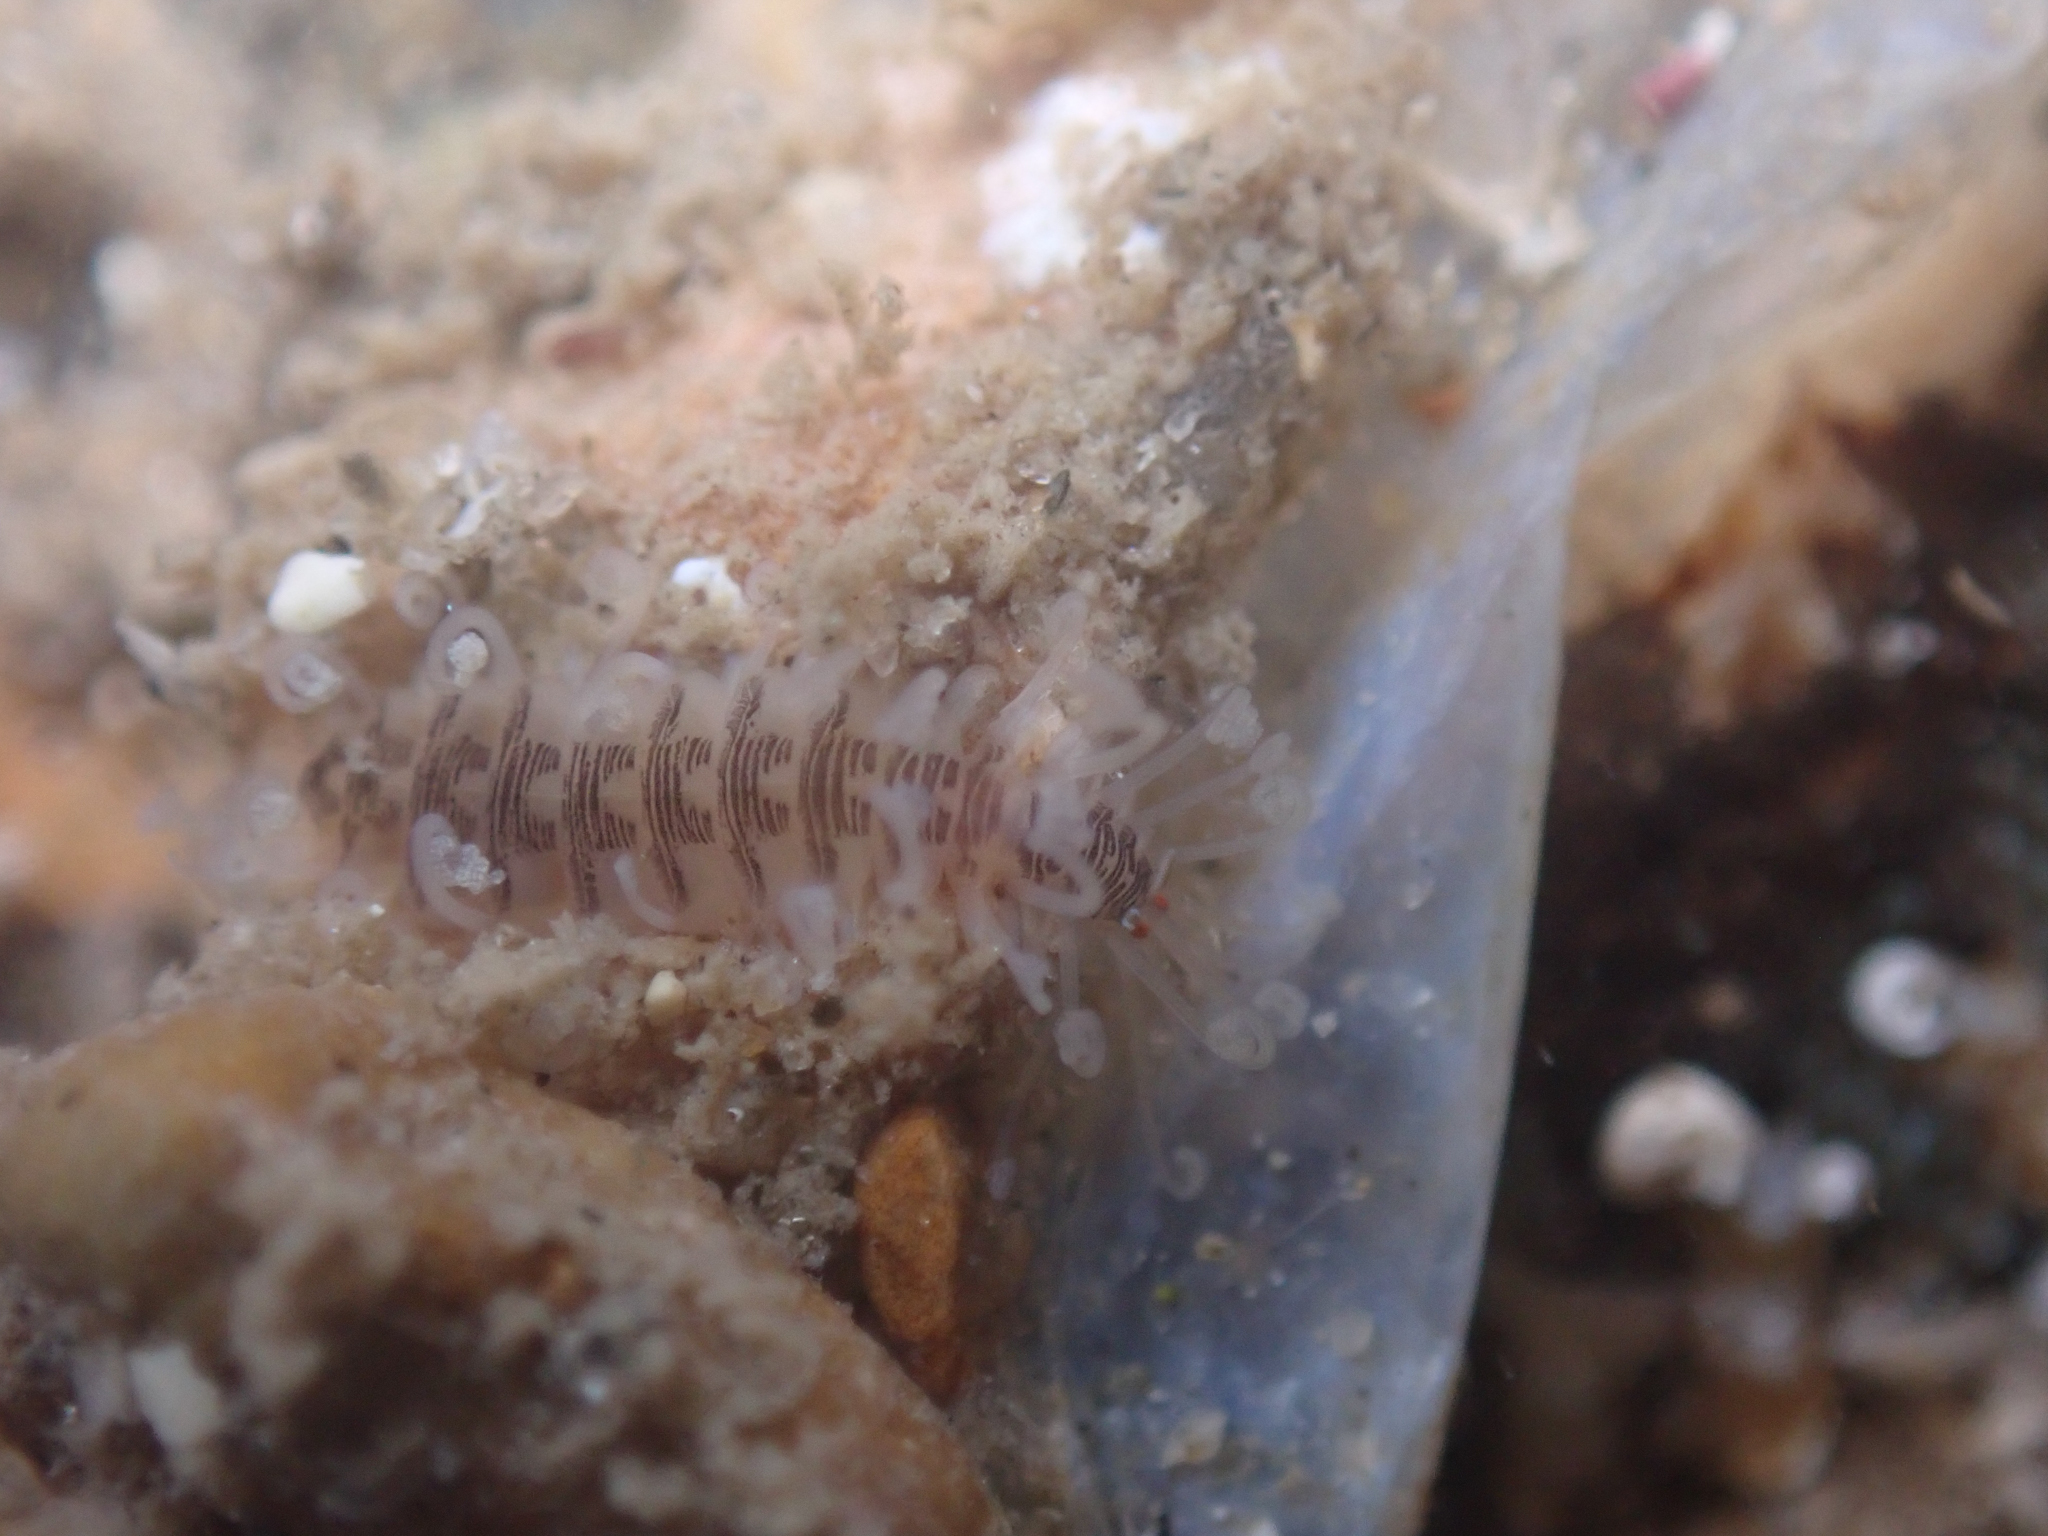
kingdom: Animalia
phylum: Annelida
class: Polychaeta
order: Phyllodocida
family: Syllidae
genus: Amblyosyllis
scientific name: Amblyosyllis hectori
